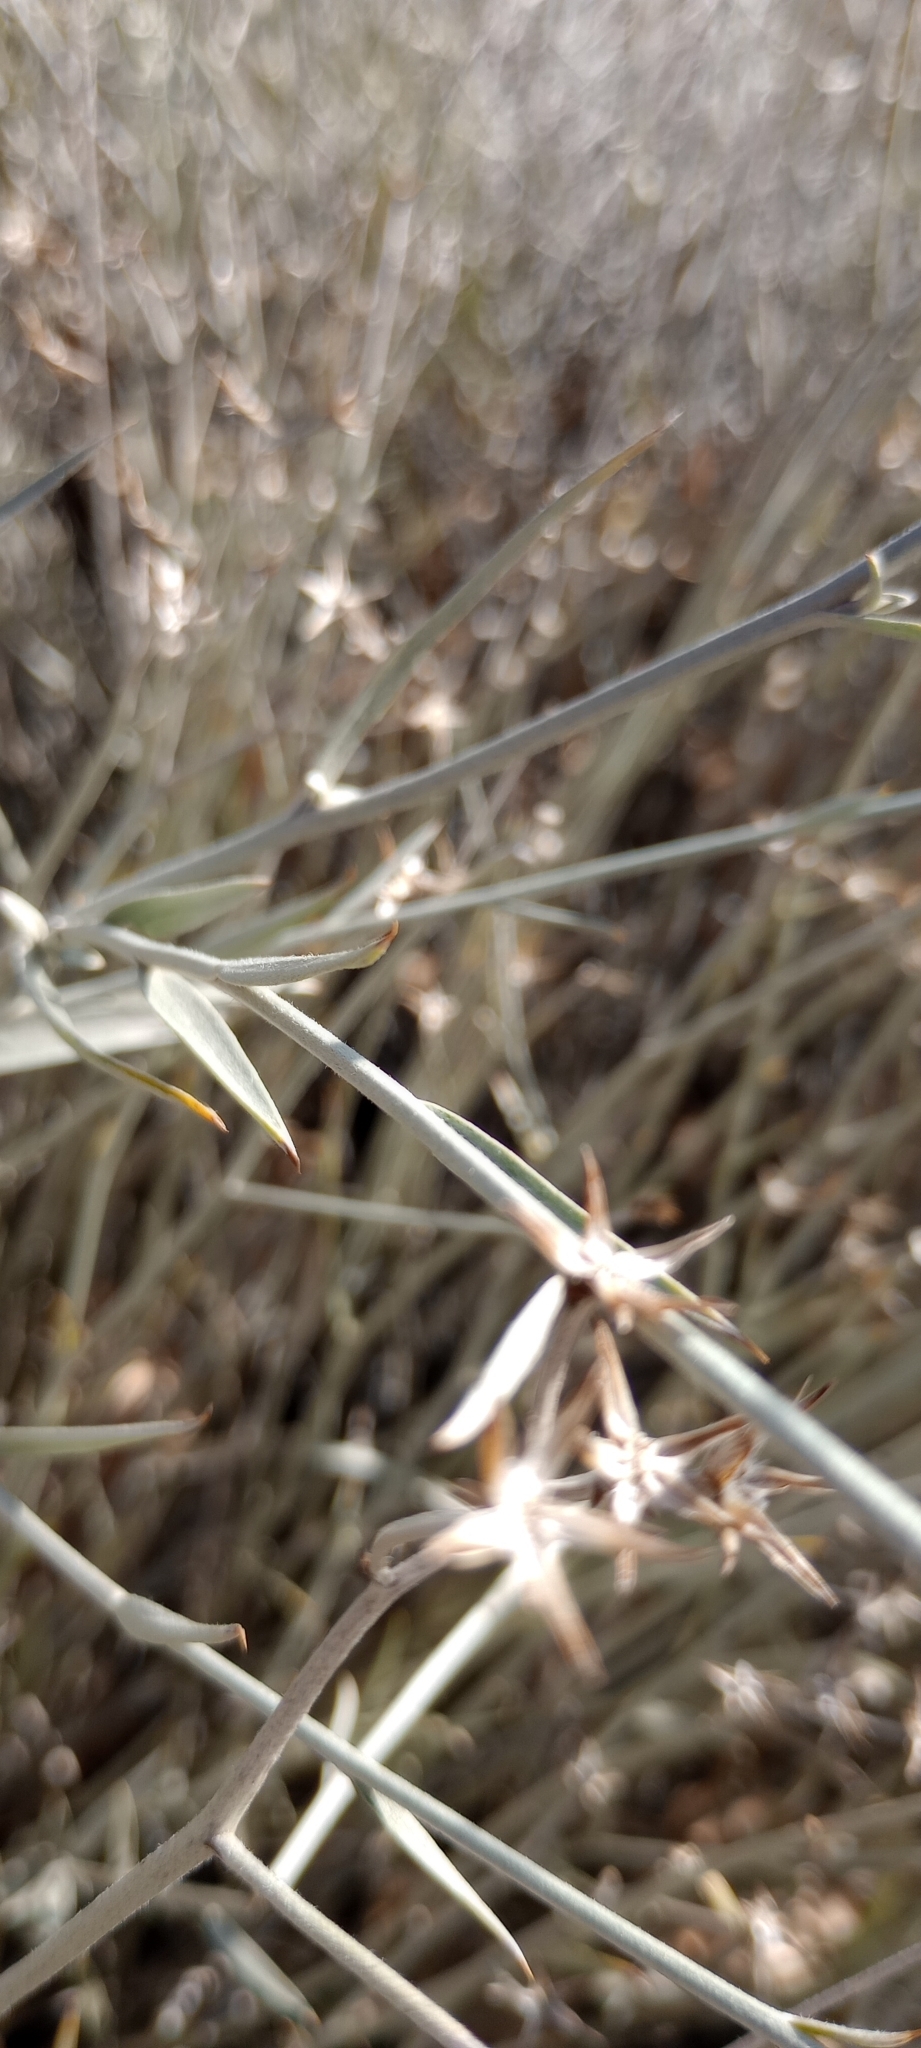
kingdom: Plantae
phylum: Tracheophyta
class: Magnoliopsida
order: Asterales
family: Asteraceae
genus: Hyalis
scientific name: Hyalis argentea
